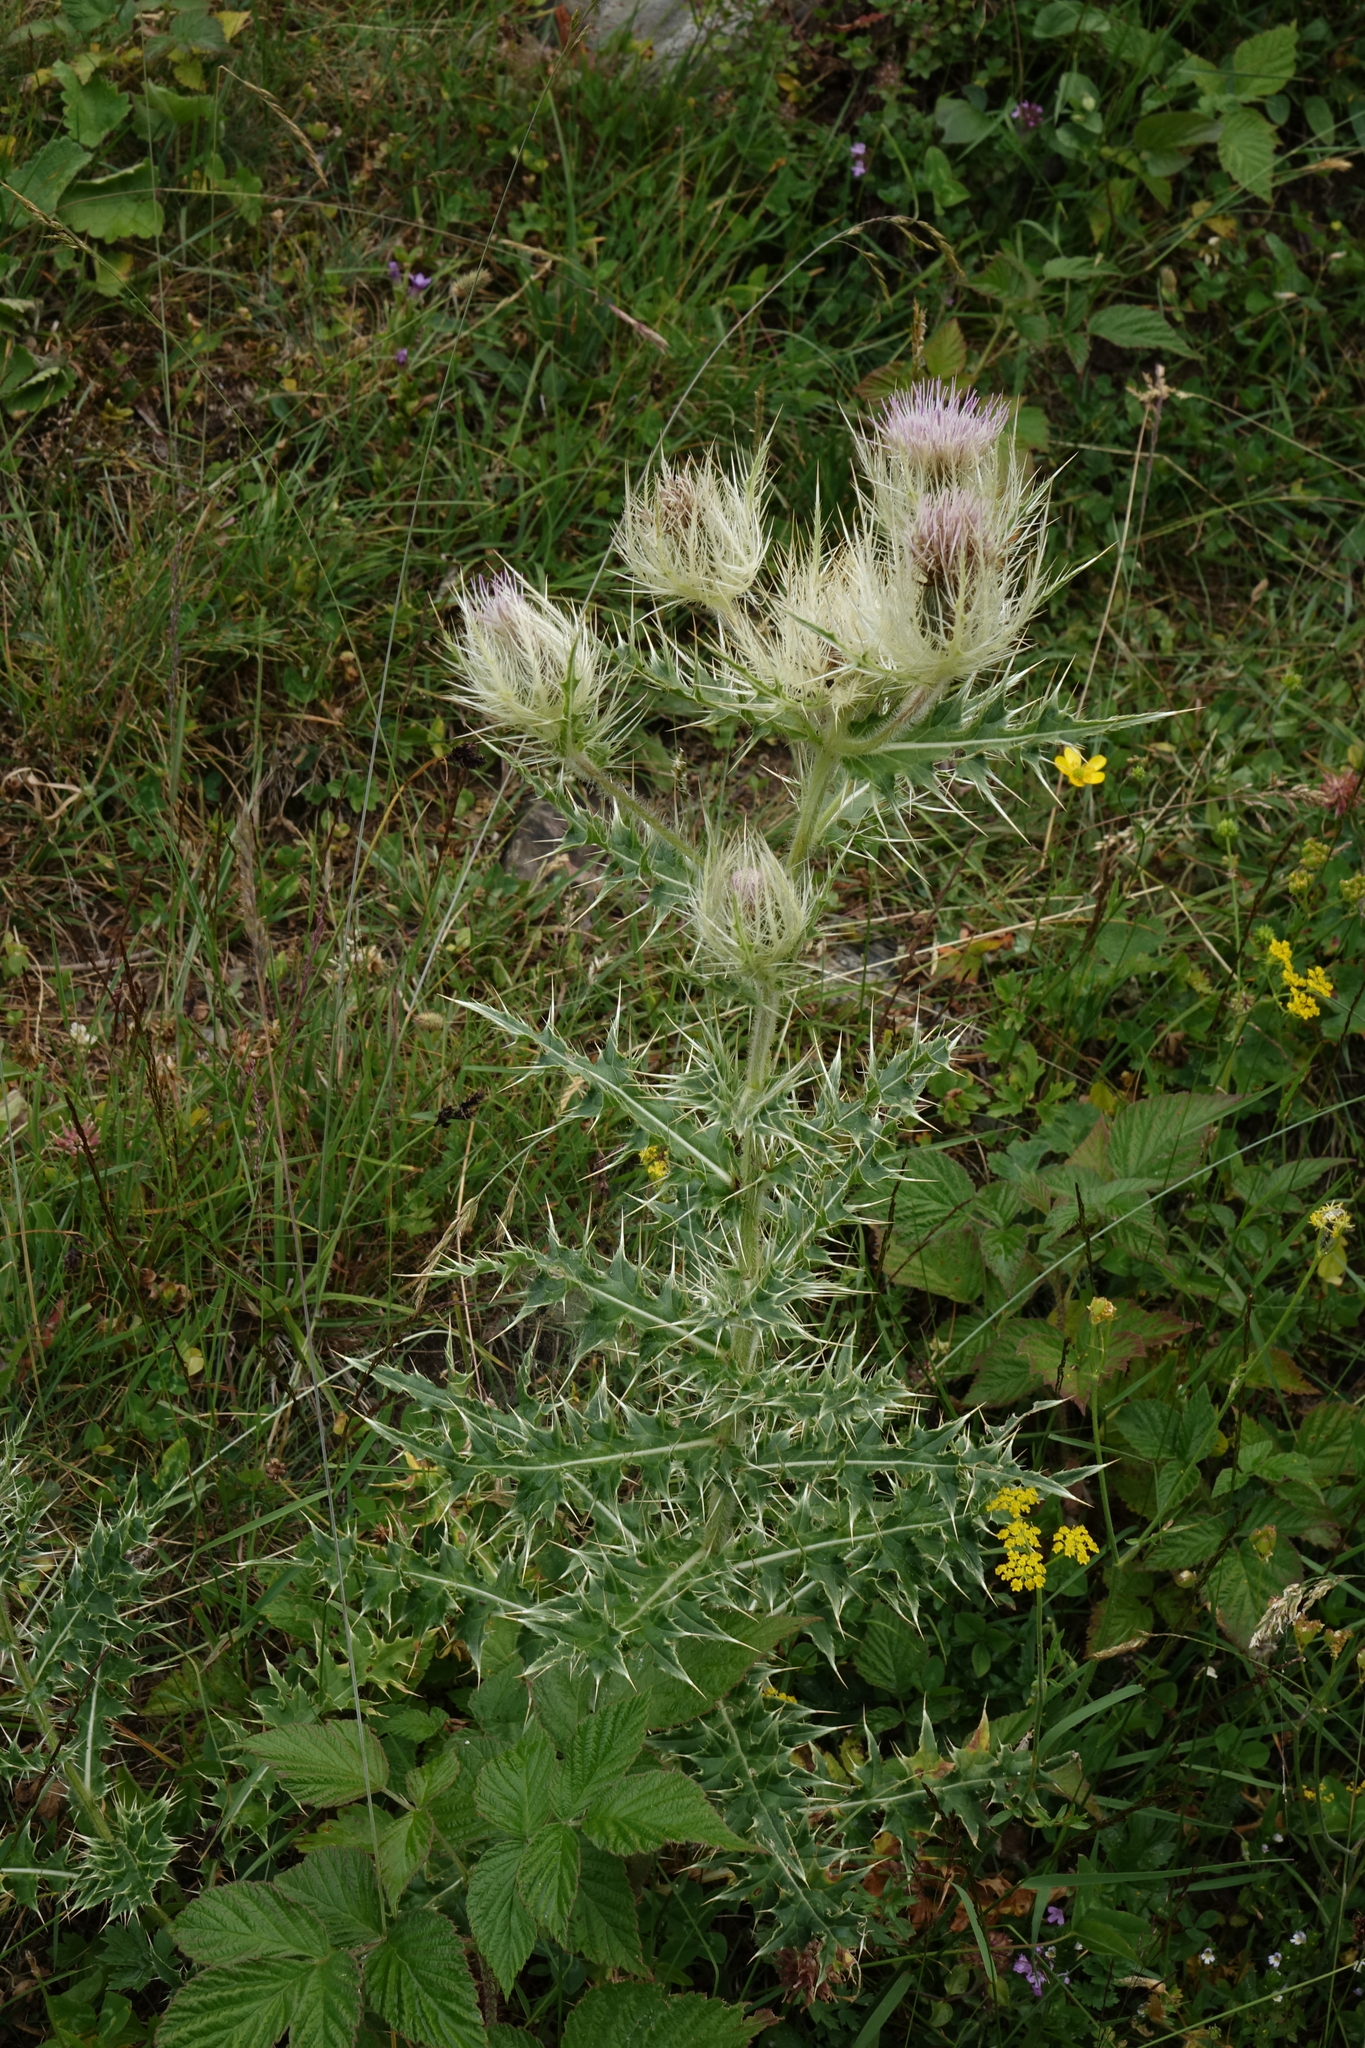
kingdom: Plantae
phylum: Tracheophyta
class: Magnoliopsida
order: Asterales
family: Asteraceae
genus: Cirsium
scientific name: Cirsium obvallatum
